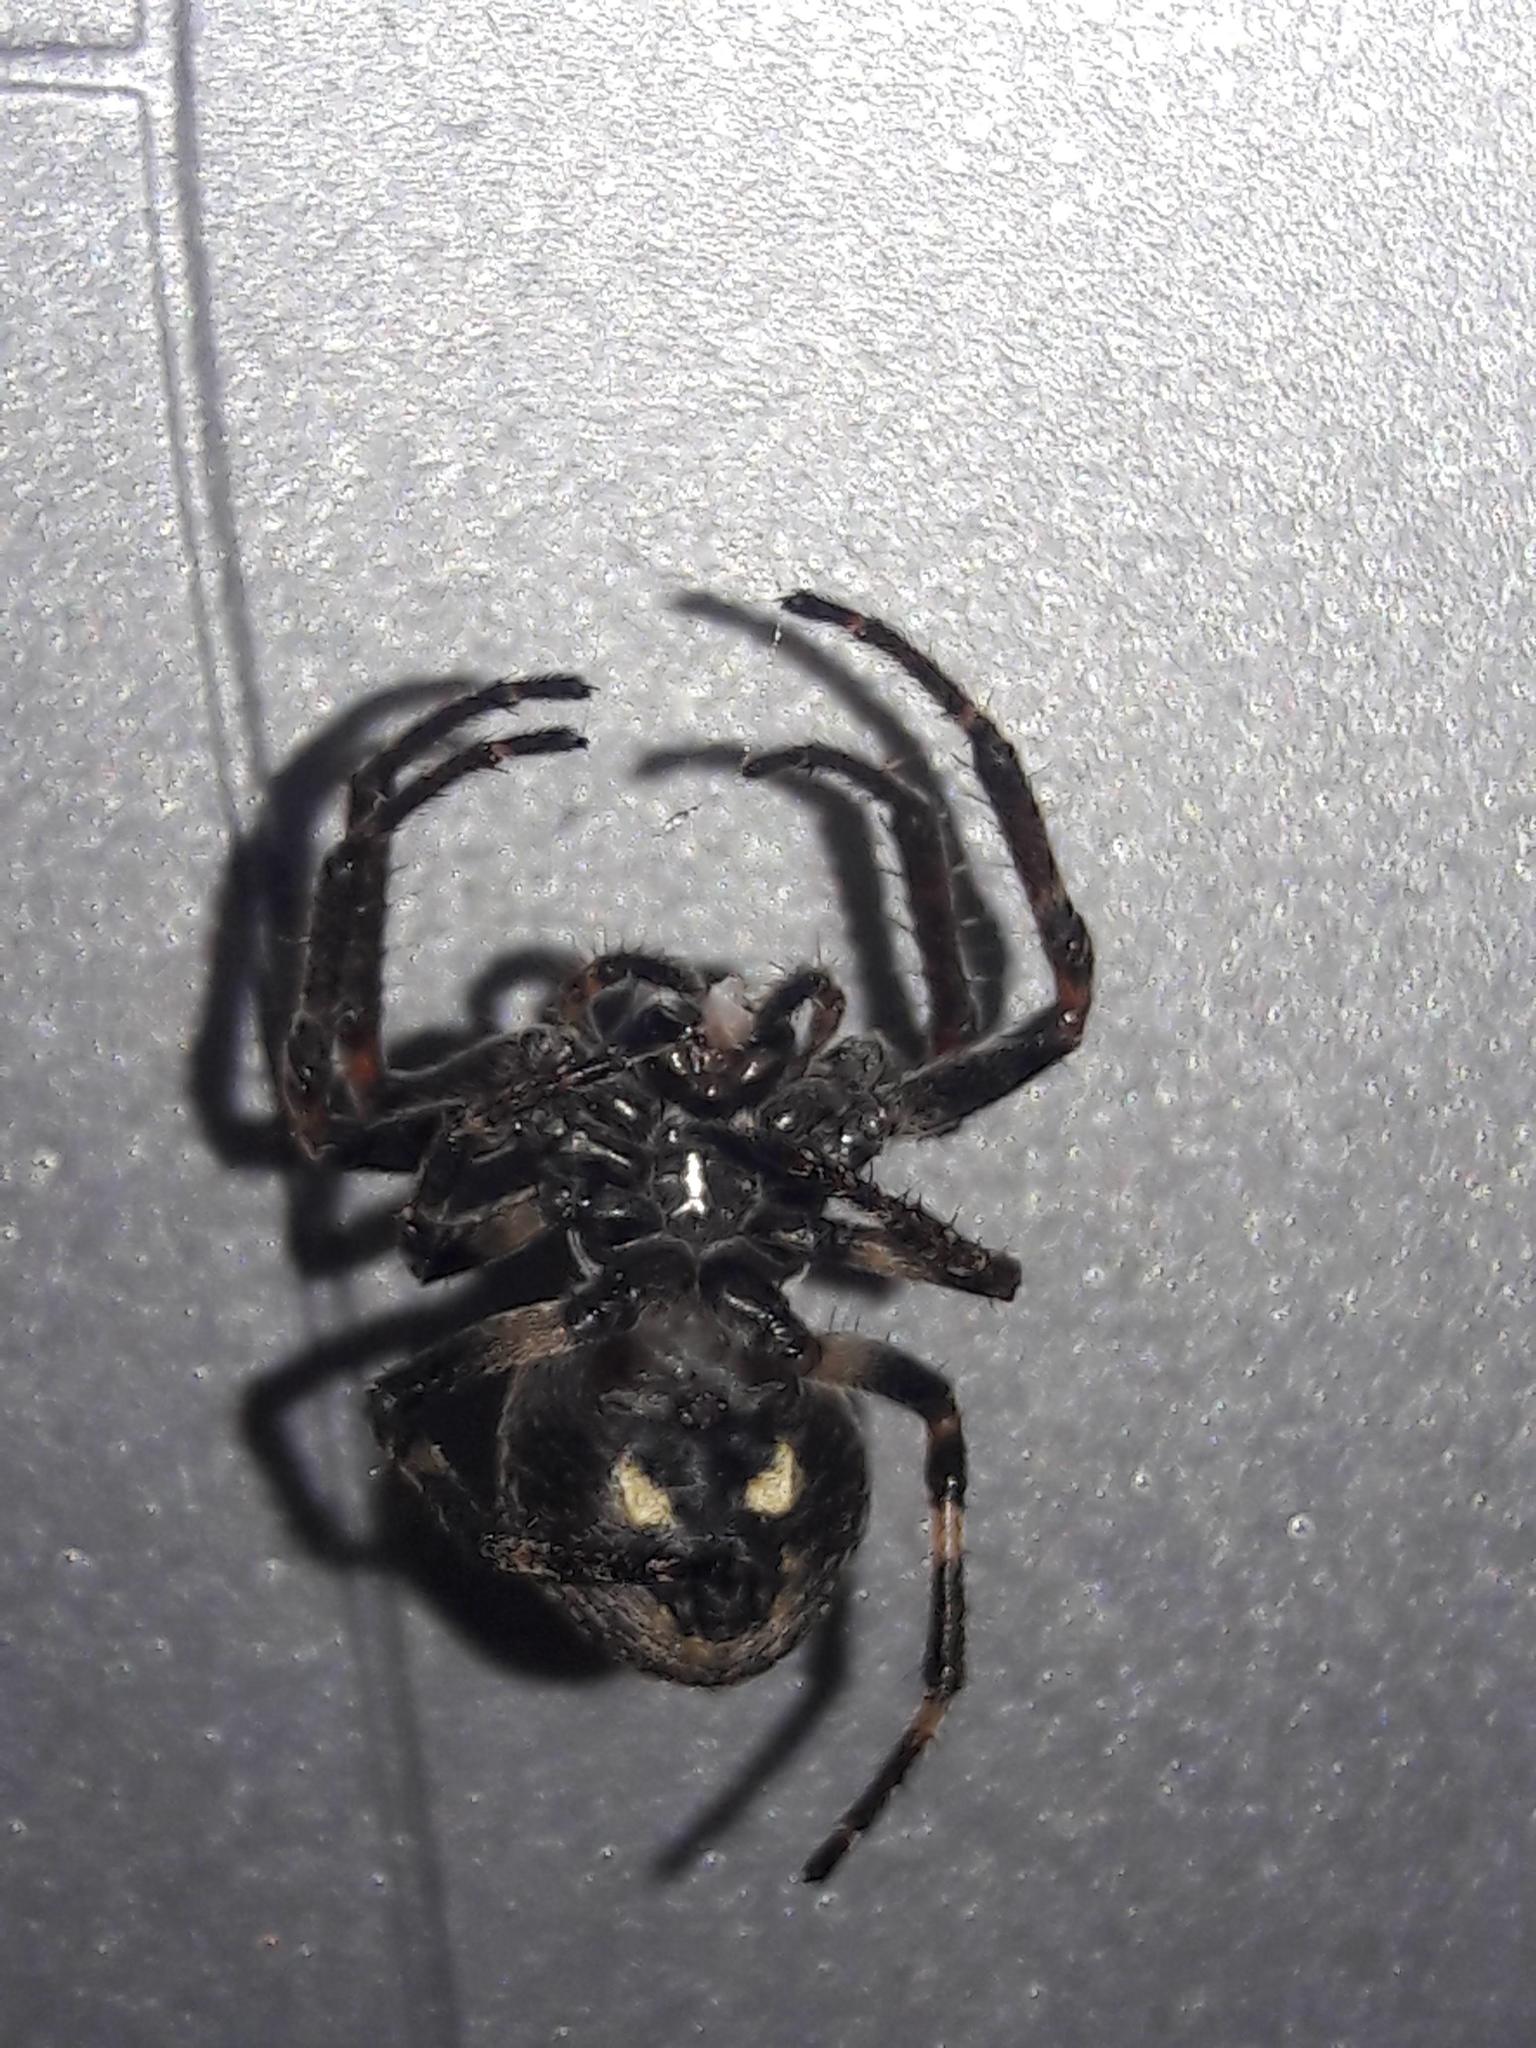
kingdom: Animalia
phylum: Arthropoda
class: Arachnida
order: Araneae
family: Araneidae
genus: Nuctenea
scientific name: Nuctenea umbratica
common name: Toad spider
